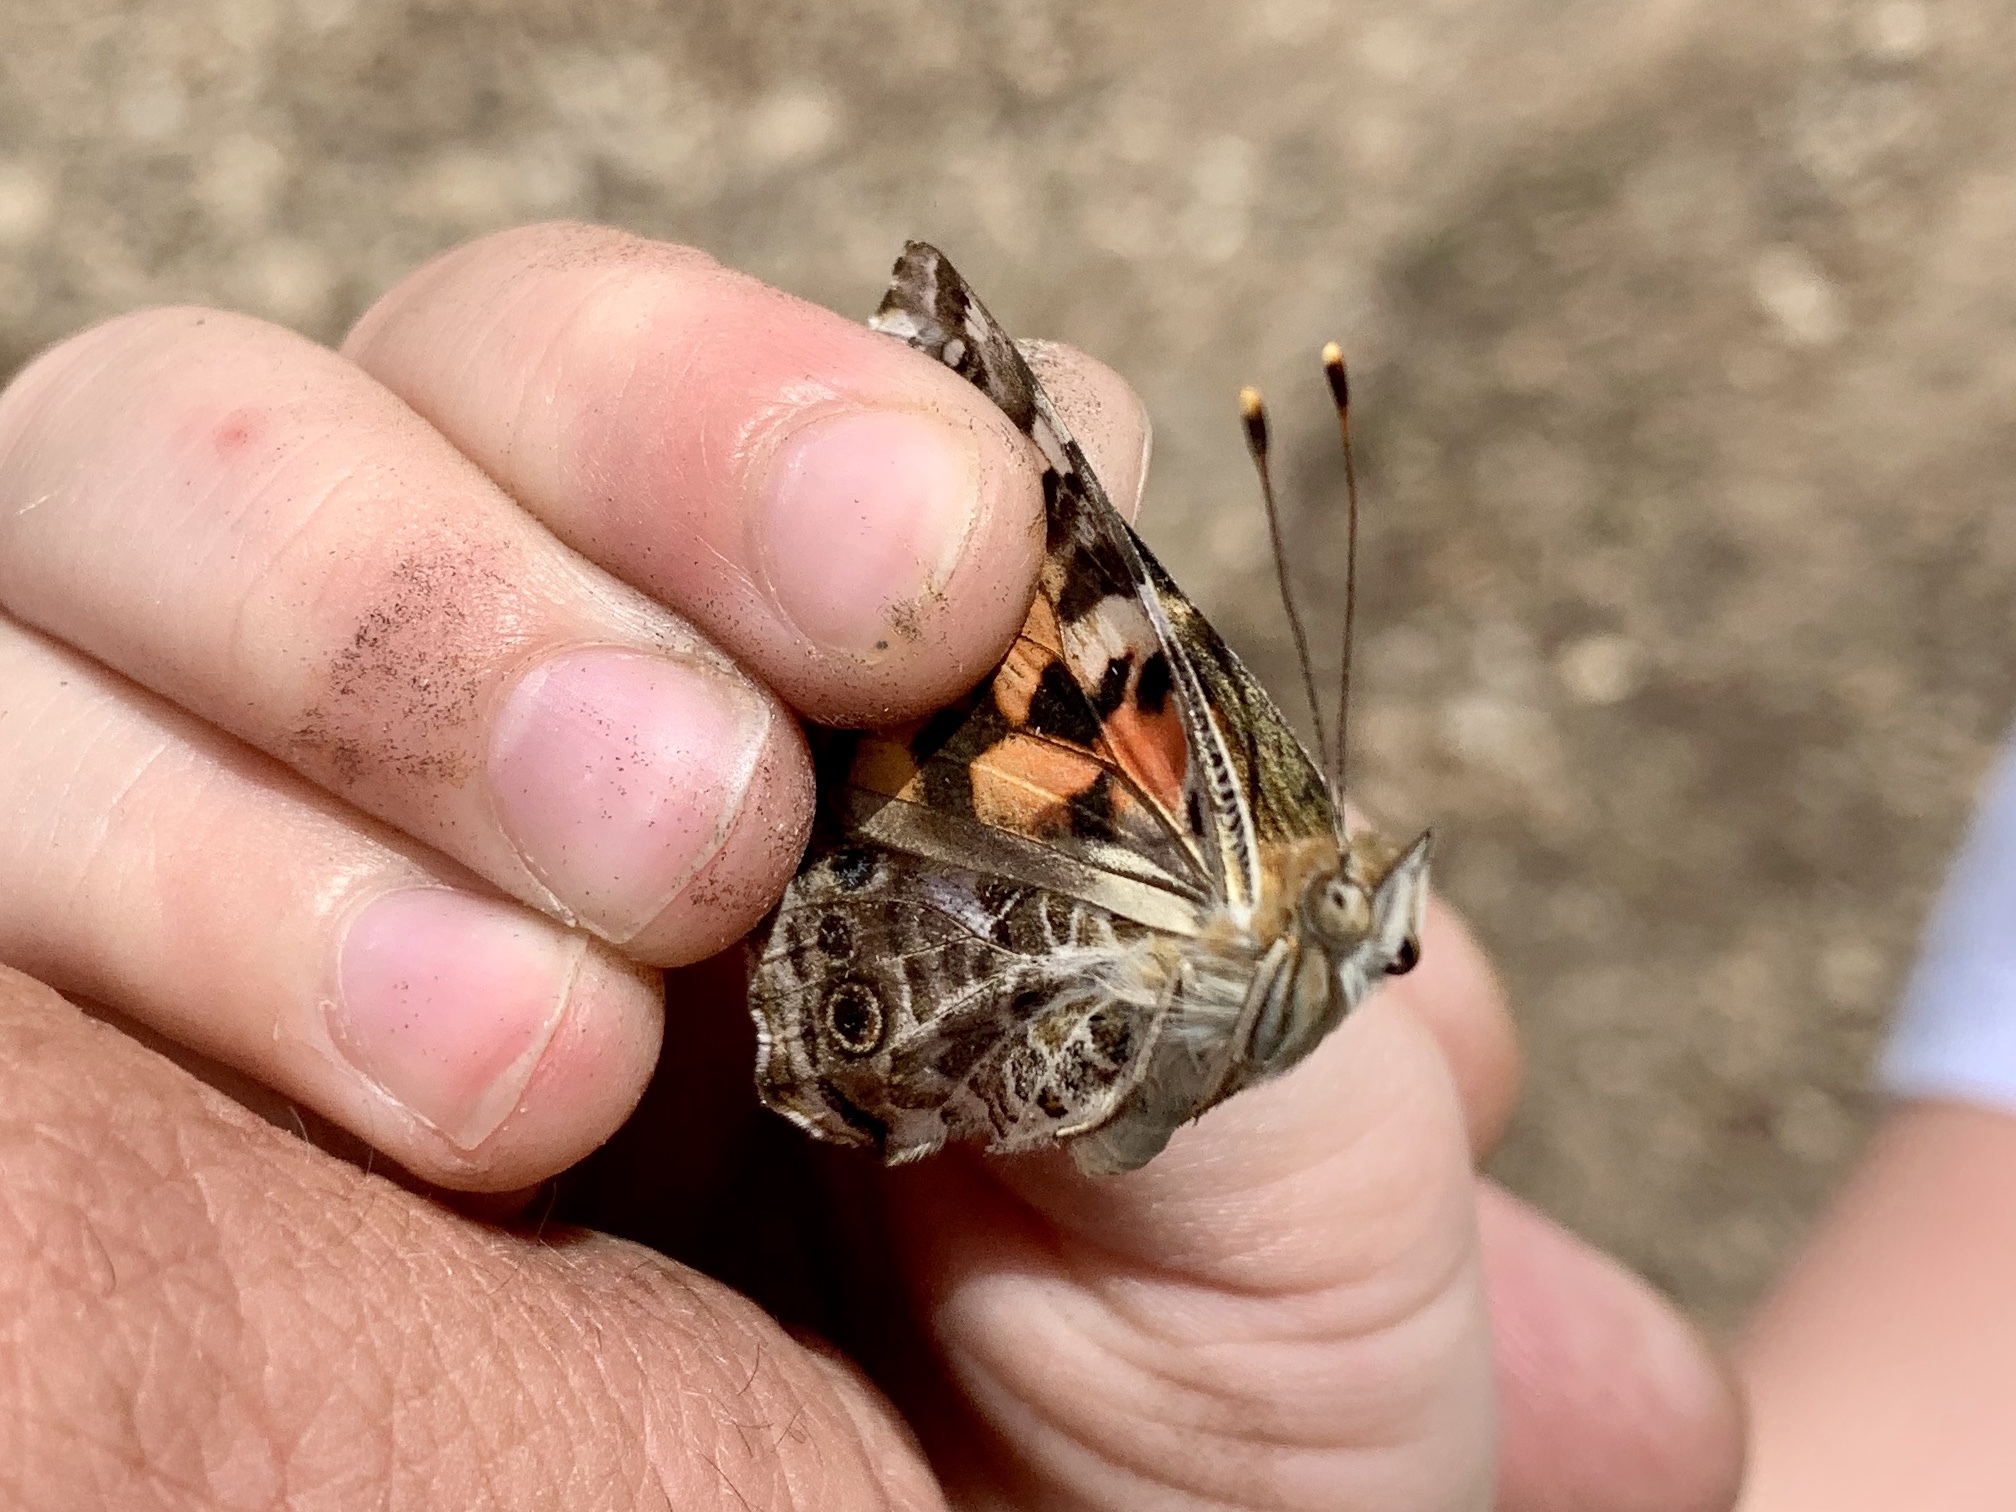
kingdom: Animalia
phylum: Arthropoda
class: Insecta
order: Lepidoptera
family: Nymphalidae
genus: Vanessa
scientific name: Vanessa cardui
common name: Painted lady
